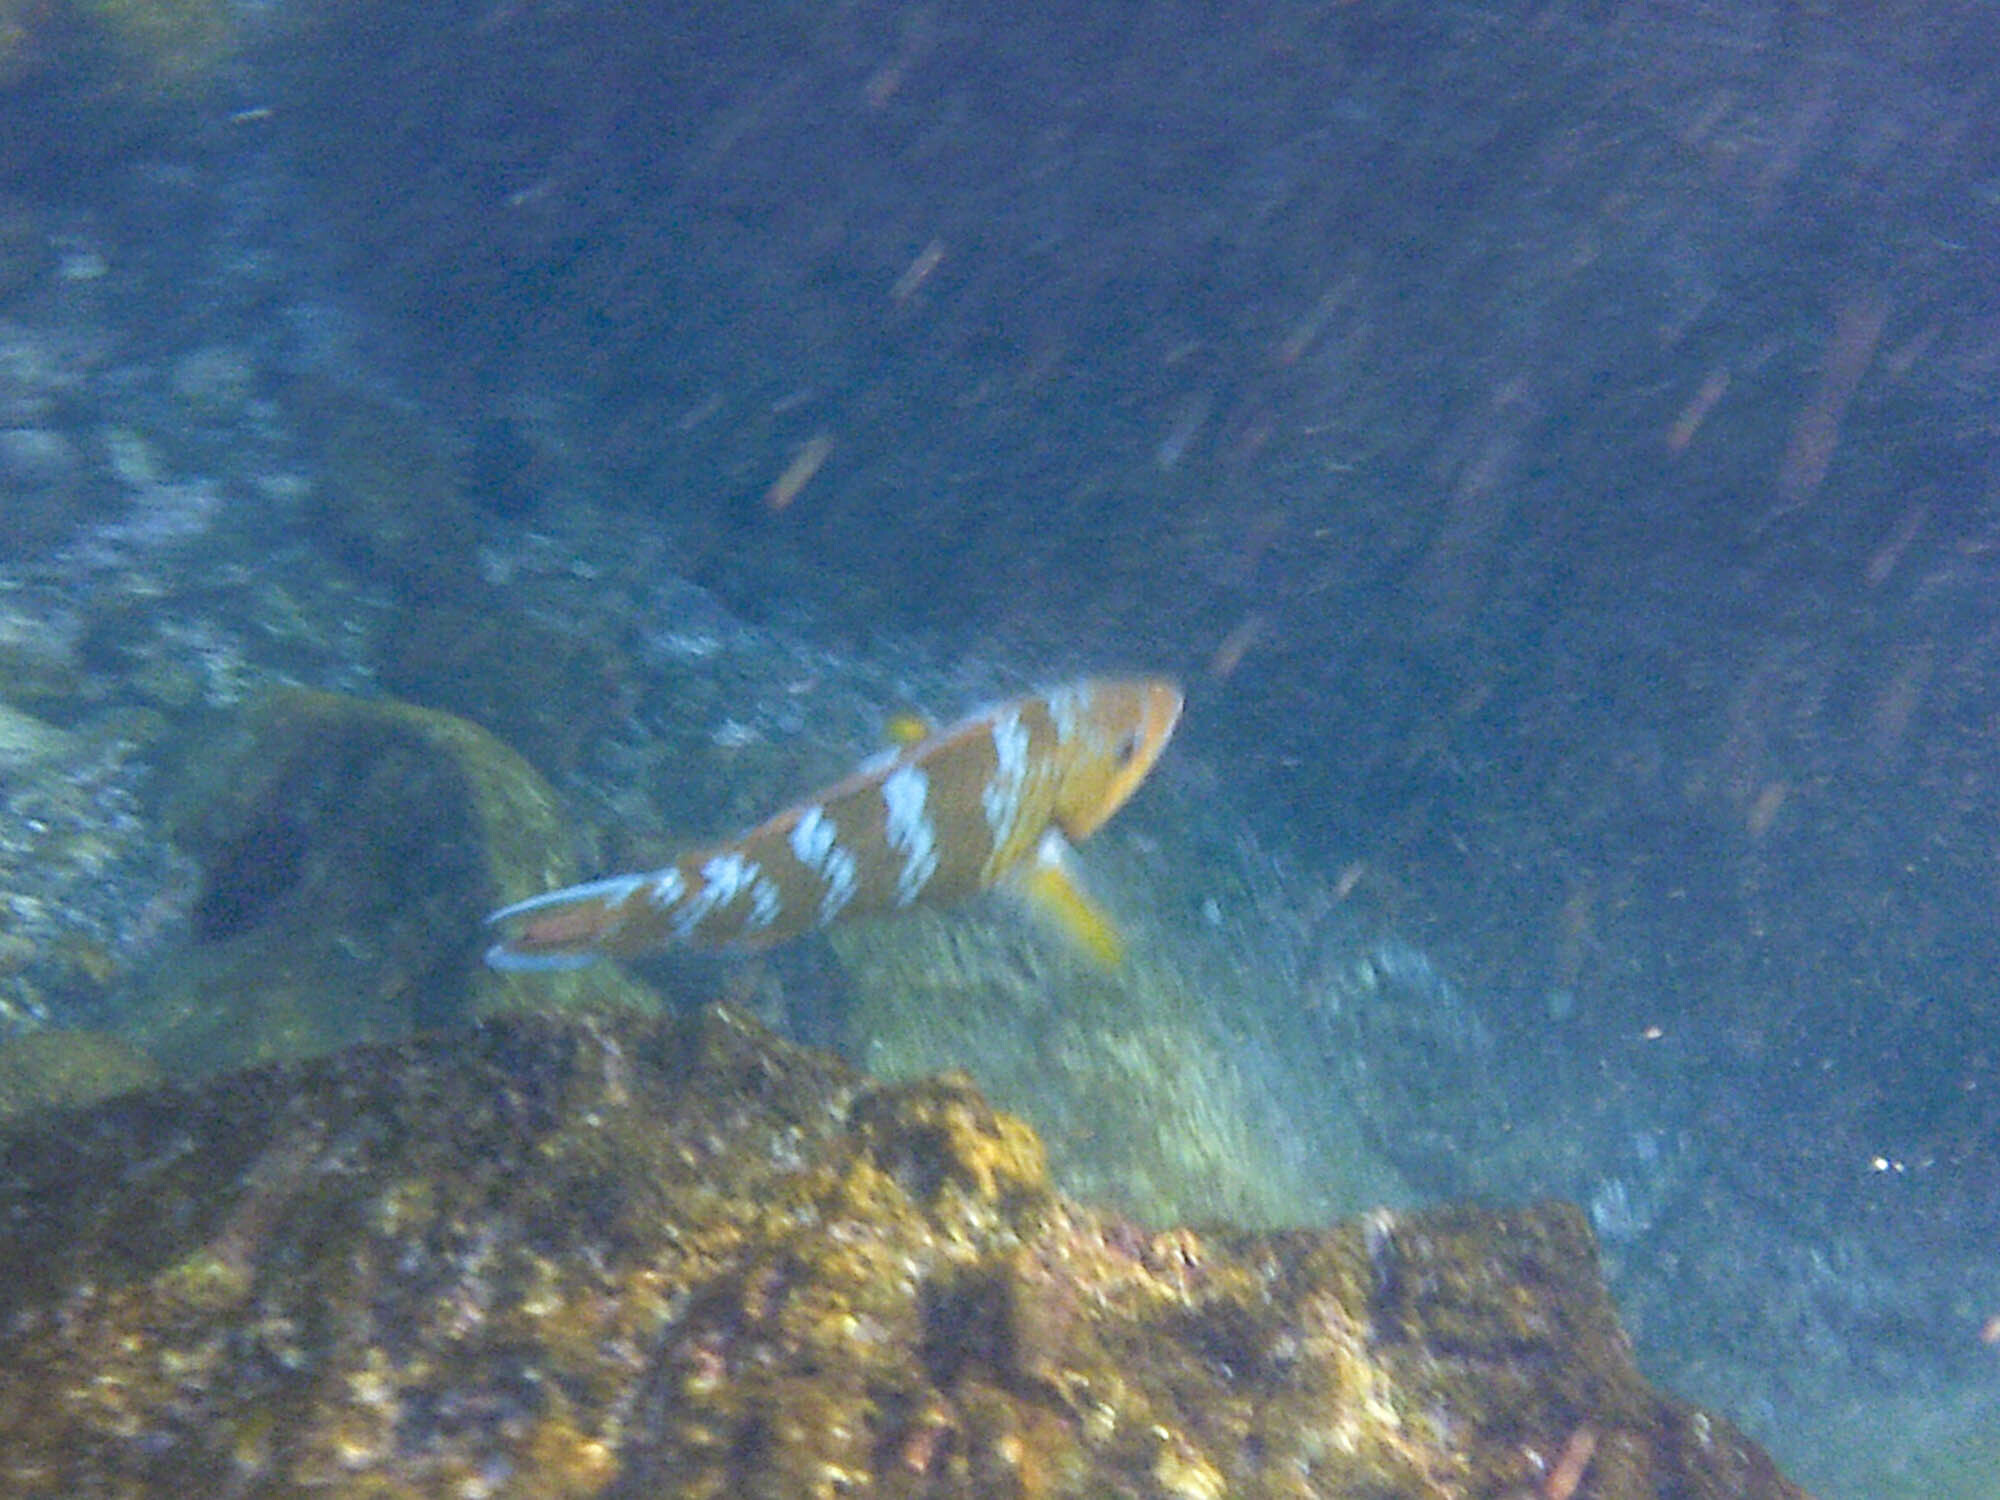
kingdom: Animalia
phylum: Chordata
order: Perciformes
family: Scaridae
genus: Scarus
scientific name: Scarus ghobban
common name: Blue-barred parrotfish
